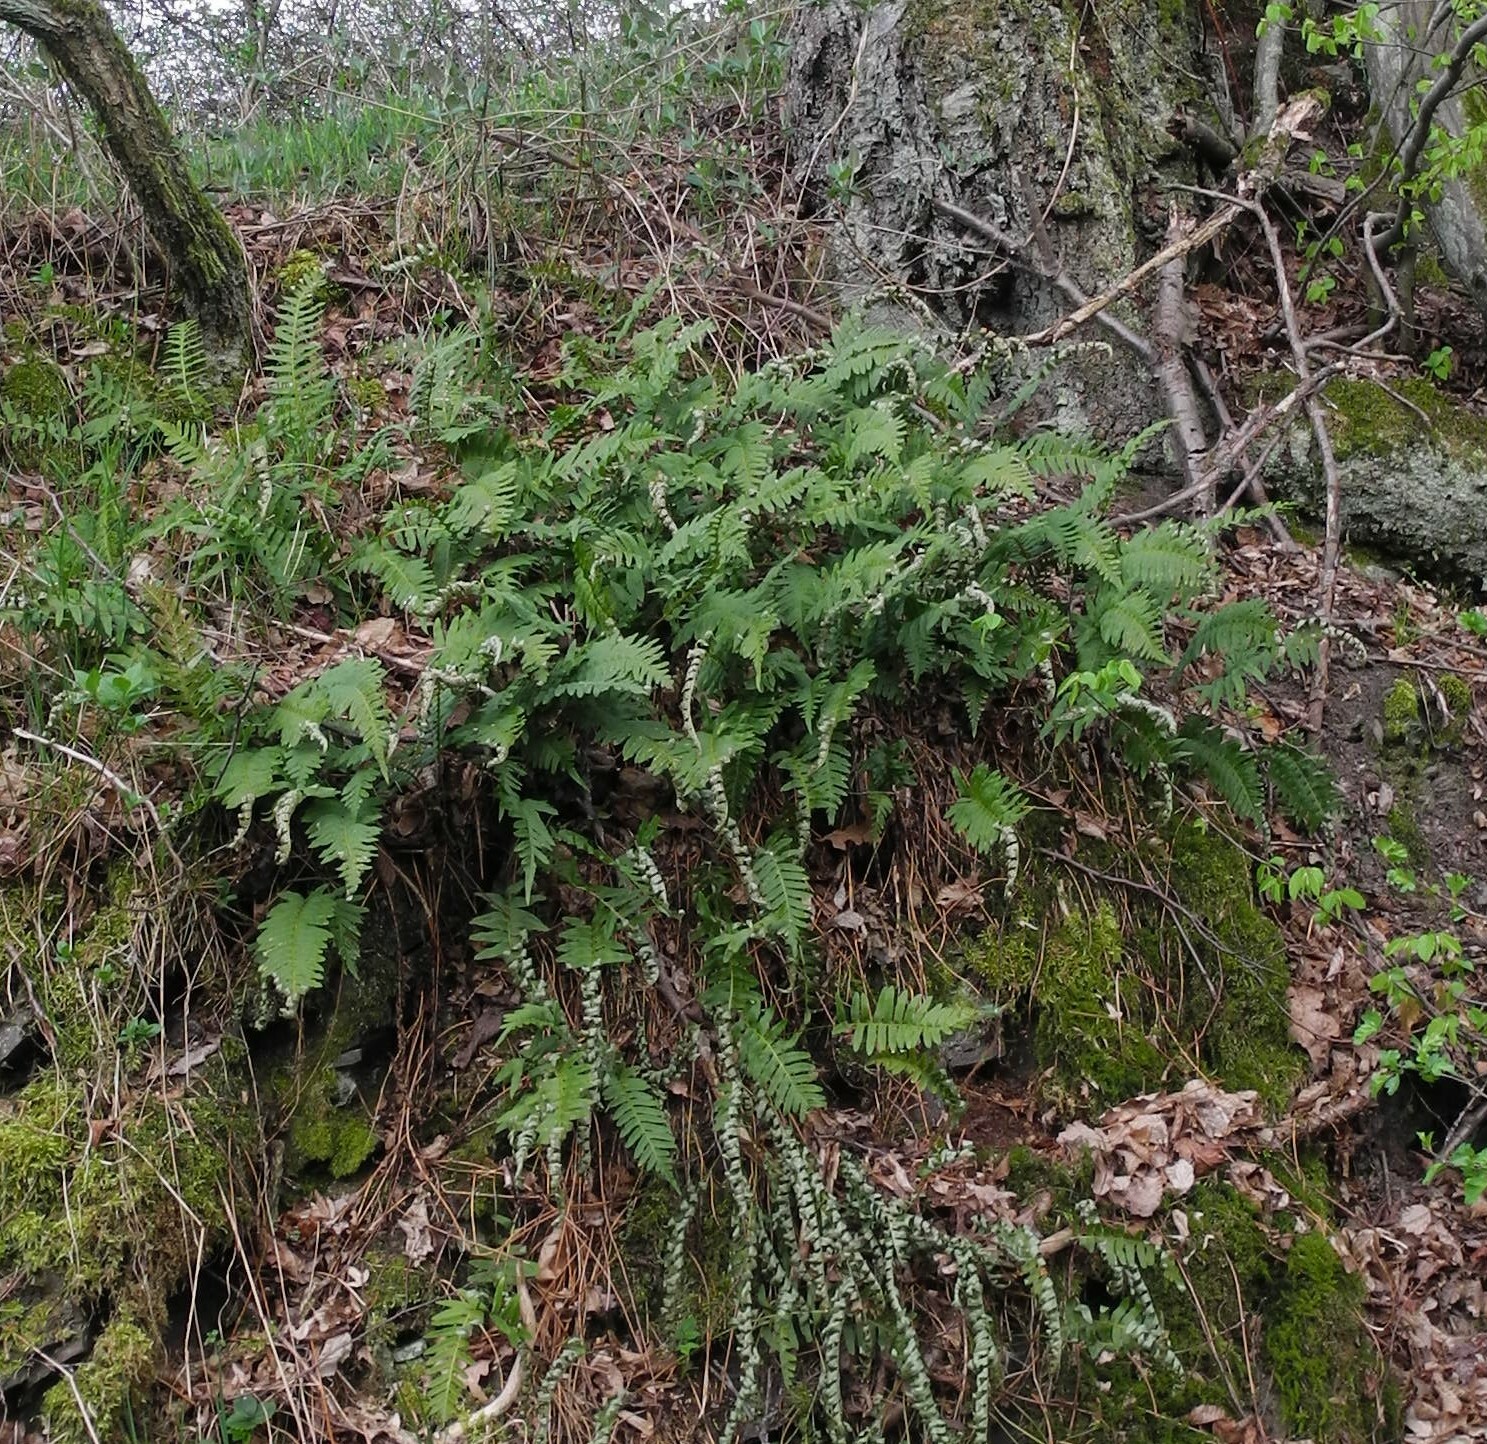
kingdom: Plantae
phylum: Tracheophyta
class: Polypodiopsida
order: Polypodiales
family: Polypodiaceae
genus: Polypodium
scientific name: Polypodium vulgare
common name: Common polypody
